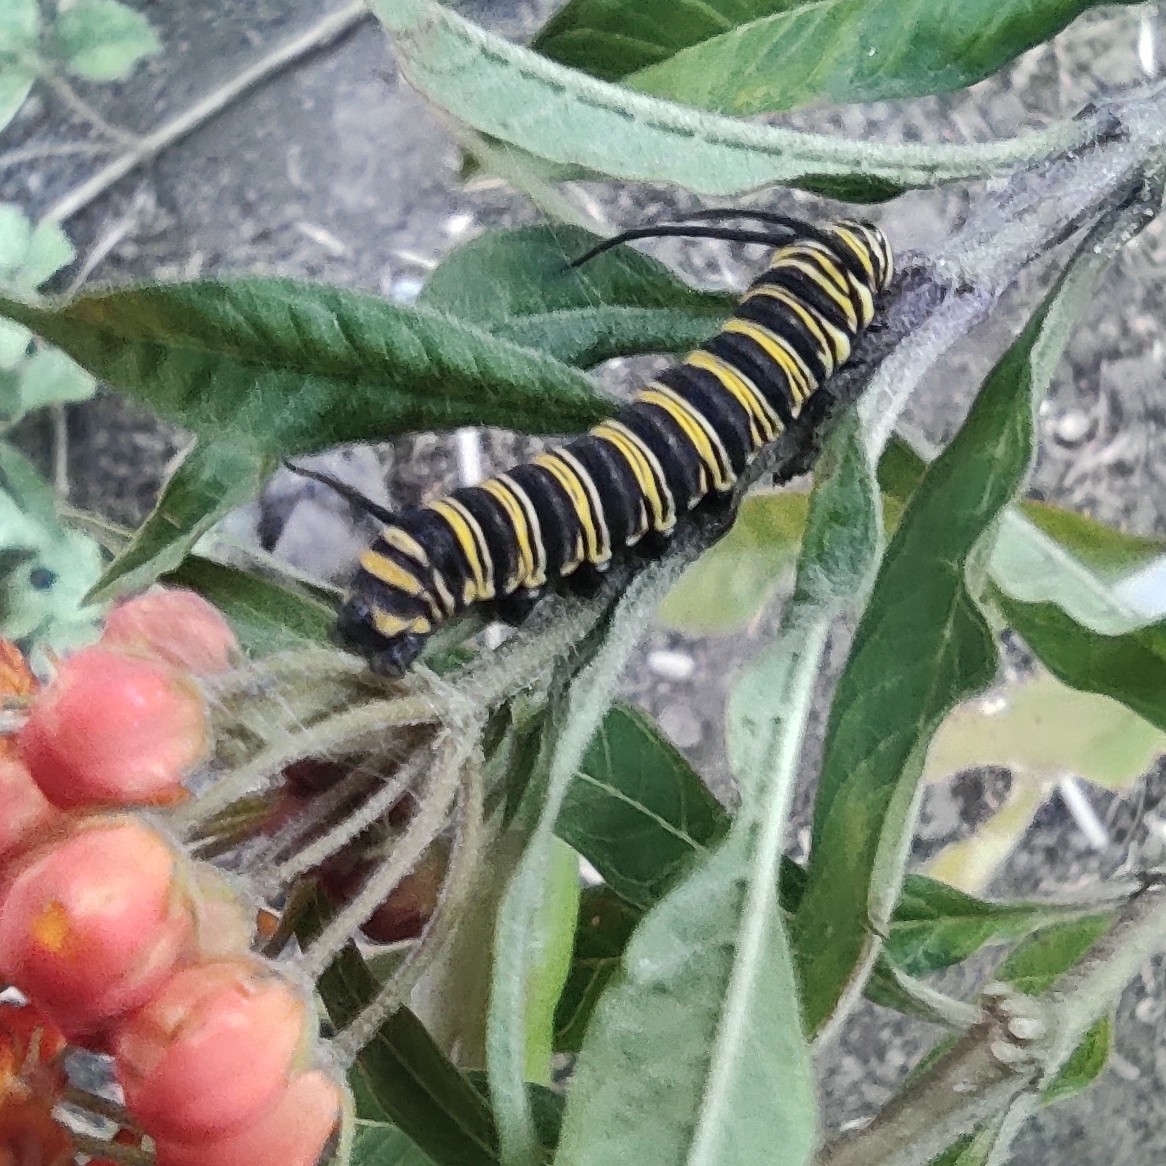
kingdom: Animalia
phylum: Arthropoda
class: Insecta
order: Lepidoptera
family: Nymphalidae
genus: Danaus
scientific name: Danaus plexippus
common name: Monarch
